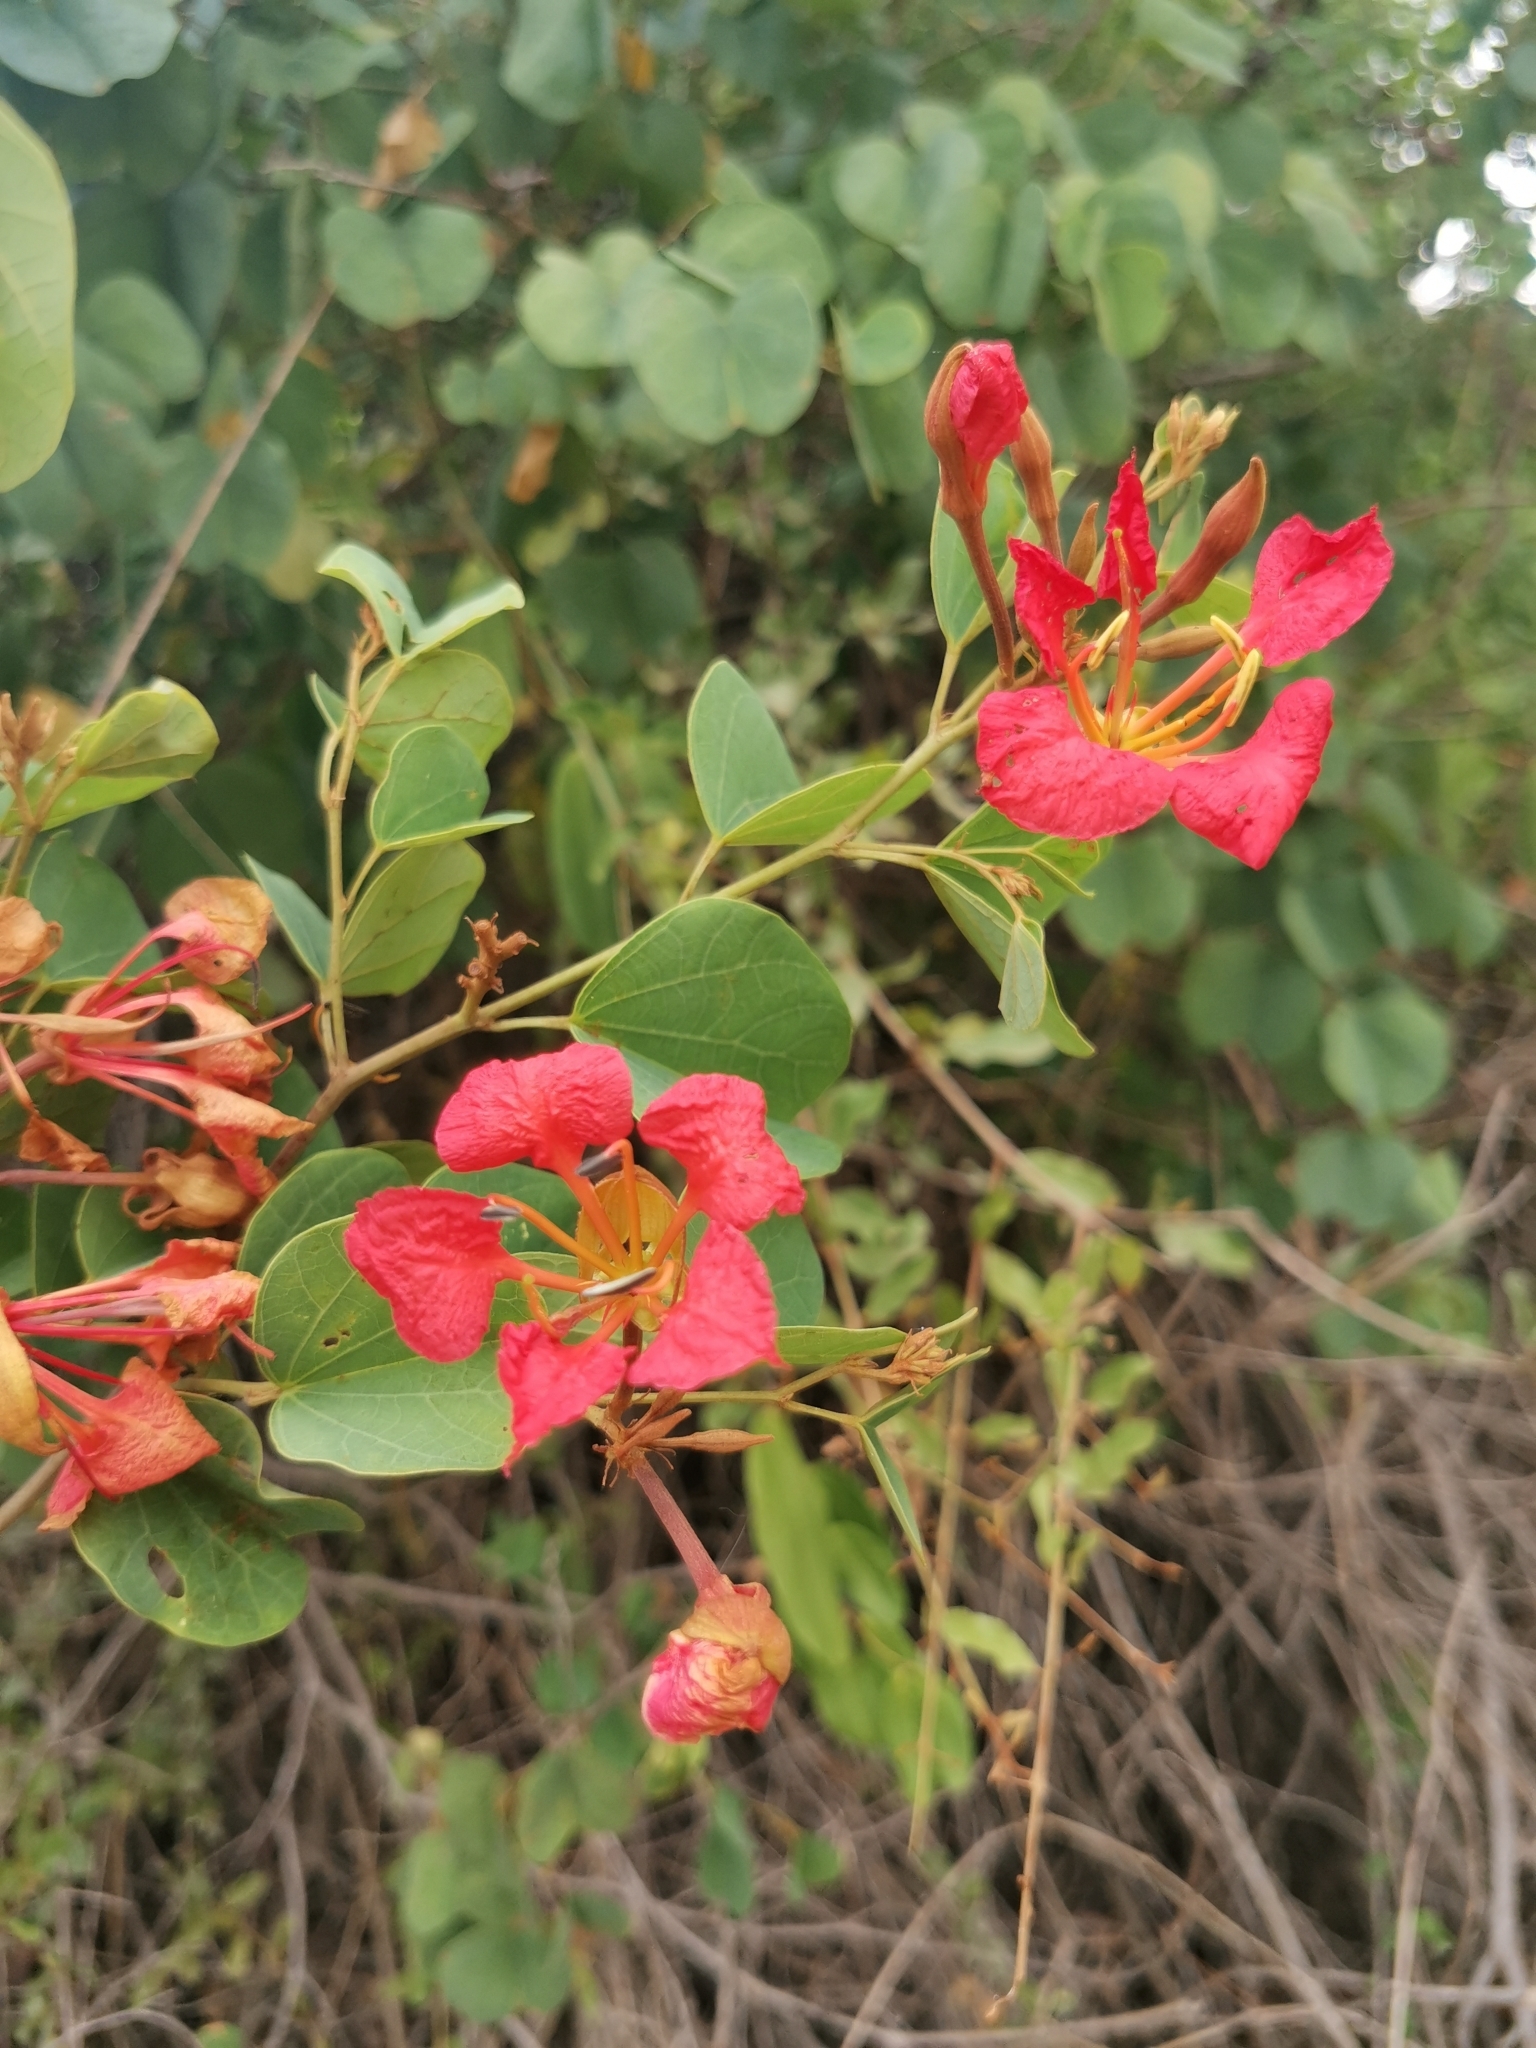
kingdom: Plantae
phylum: Tracheophyta
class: Magnoliopsida
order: Fabales
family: Fabaceae
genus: Bauhinia
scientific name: Bauhinia galpinii
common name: African plume
